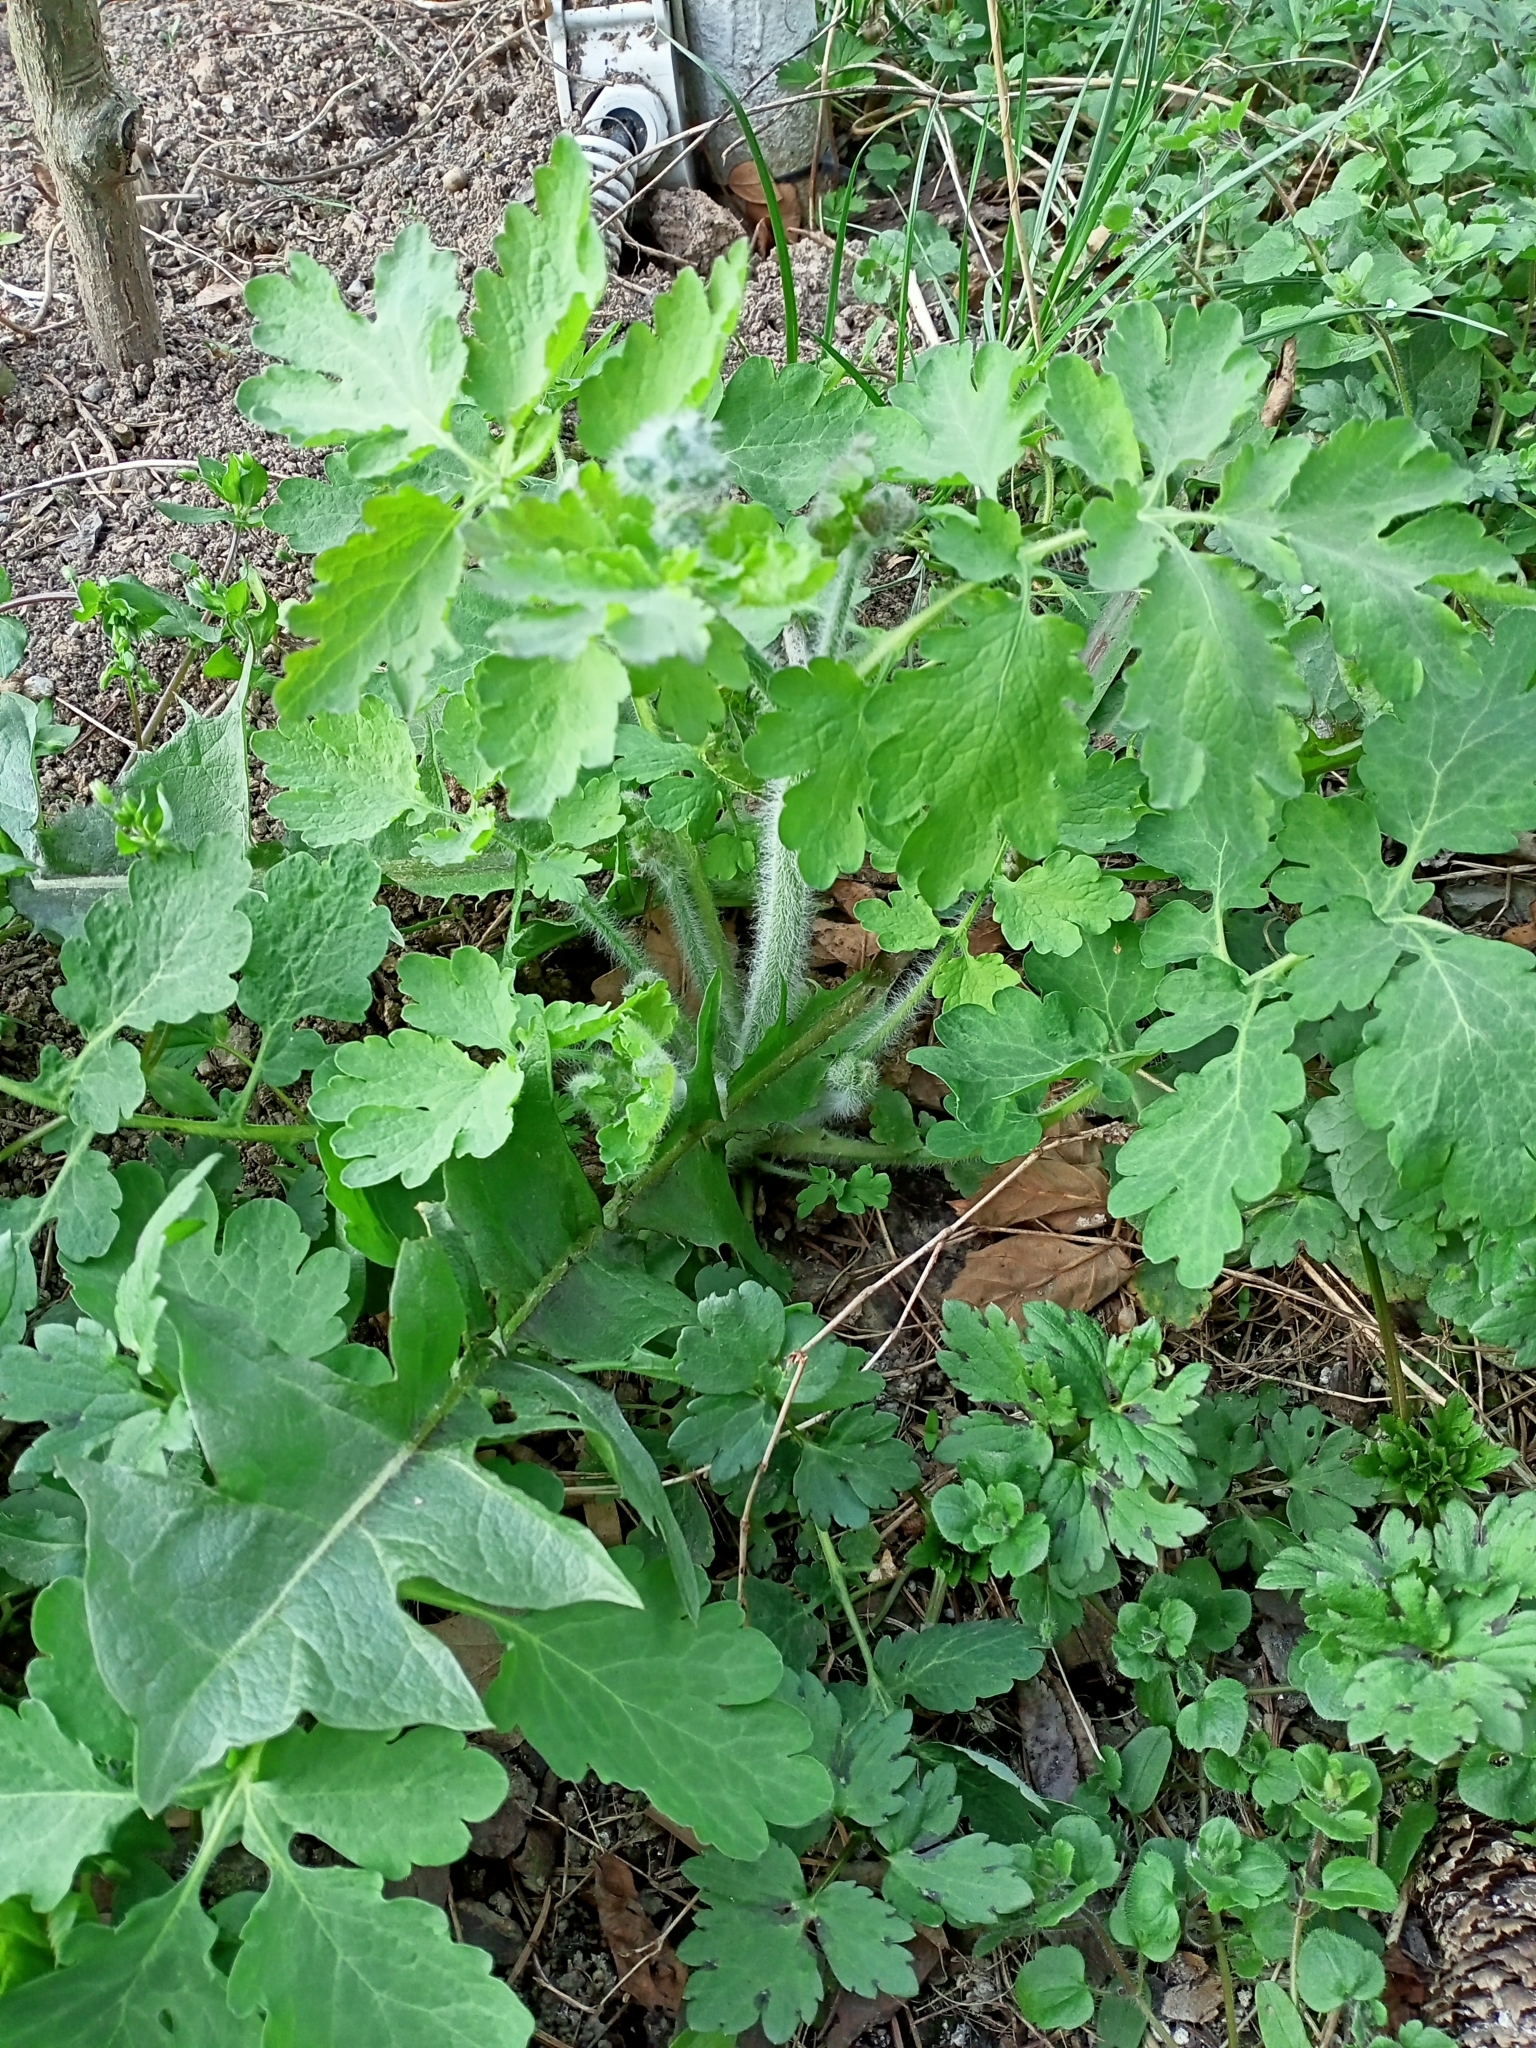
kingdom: Plantae
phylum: Tracheophyta
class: Magnoliopsida
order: Ranunculales
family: Papaveraceae
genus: Chelidonium
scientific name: Chelidonium majus
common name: Greater celandine
